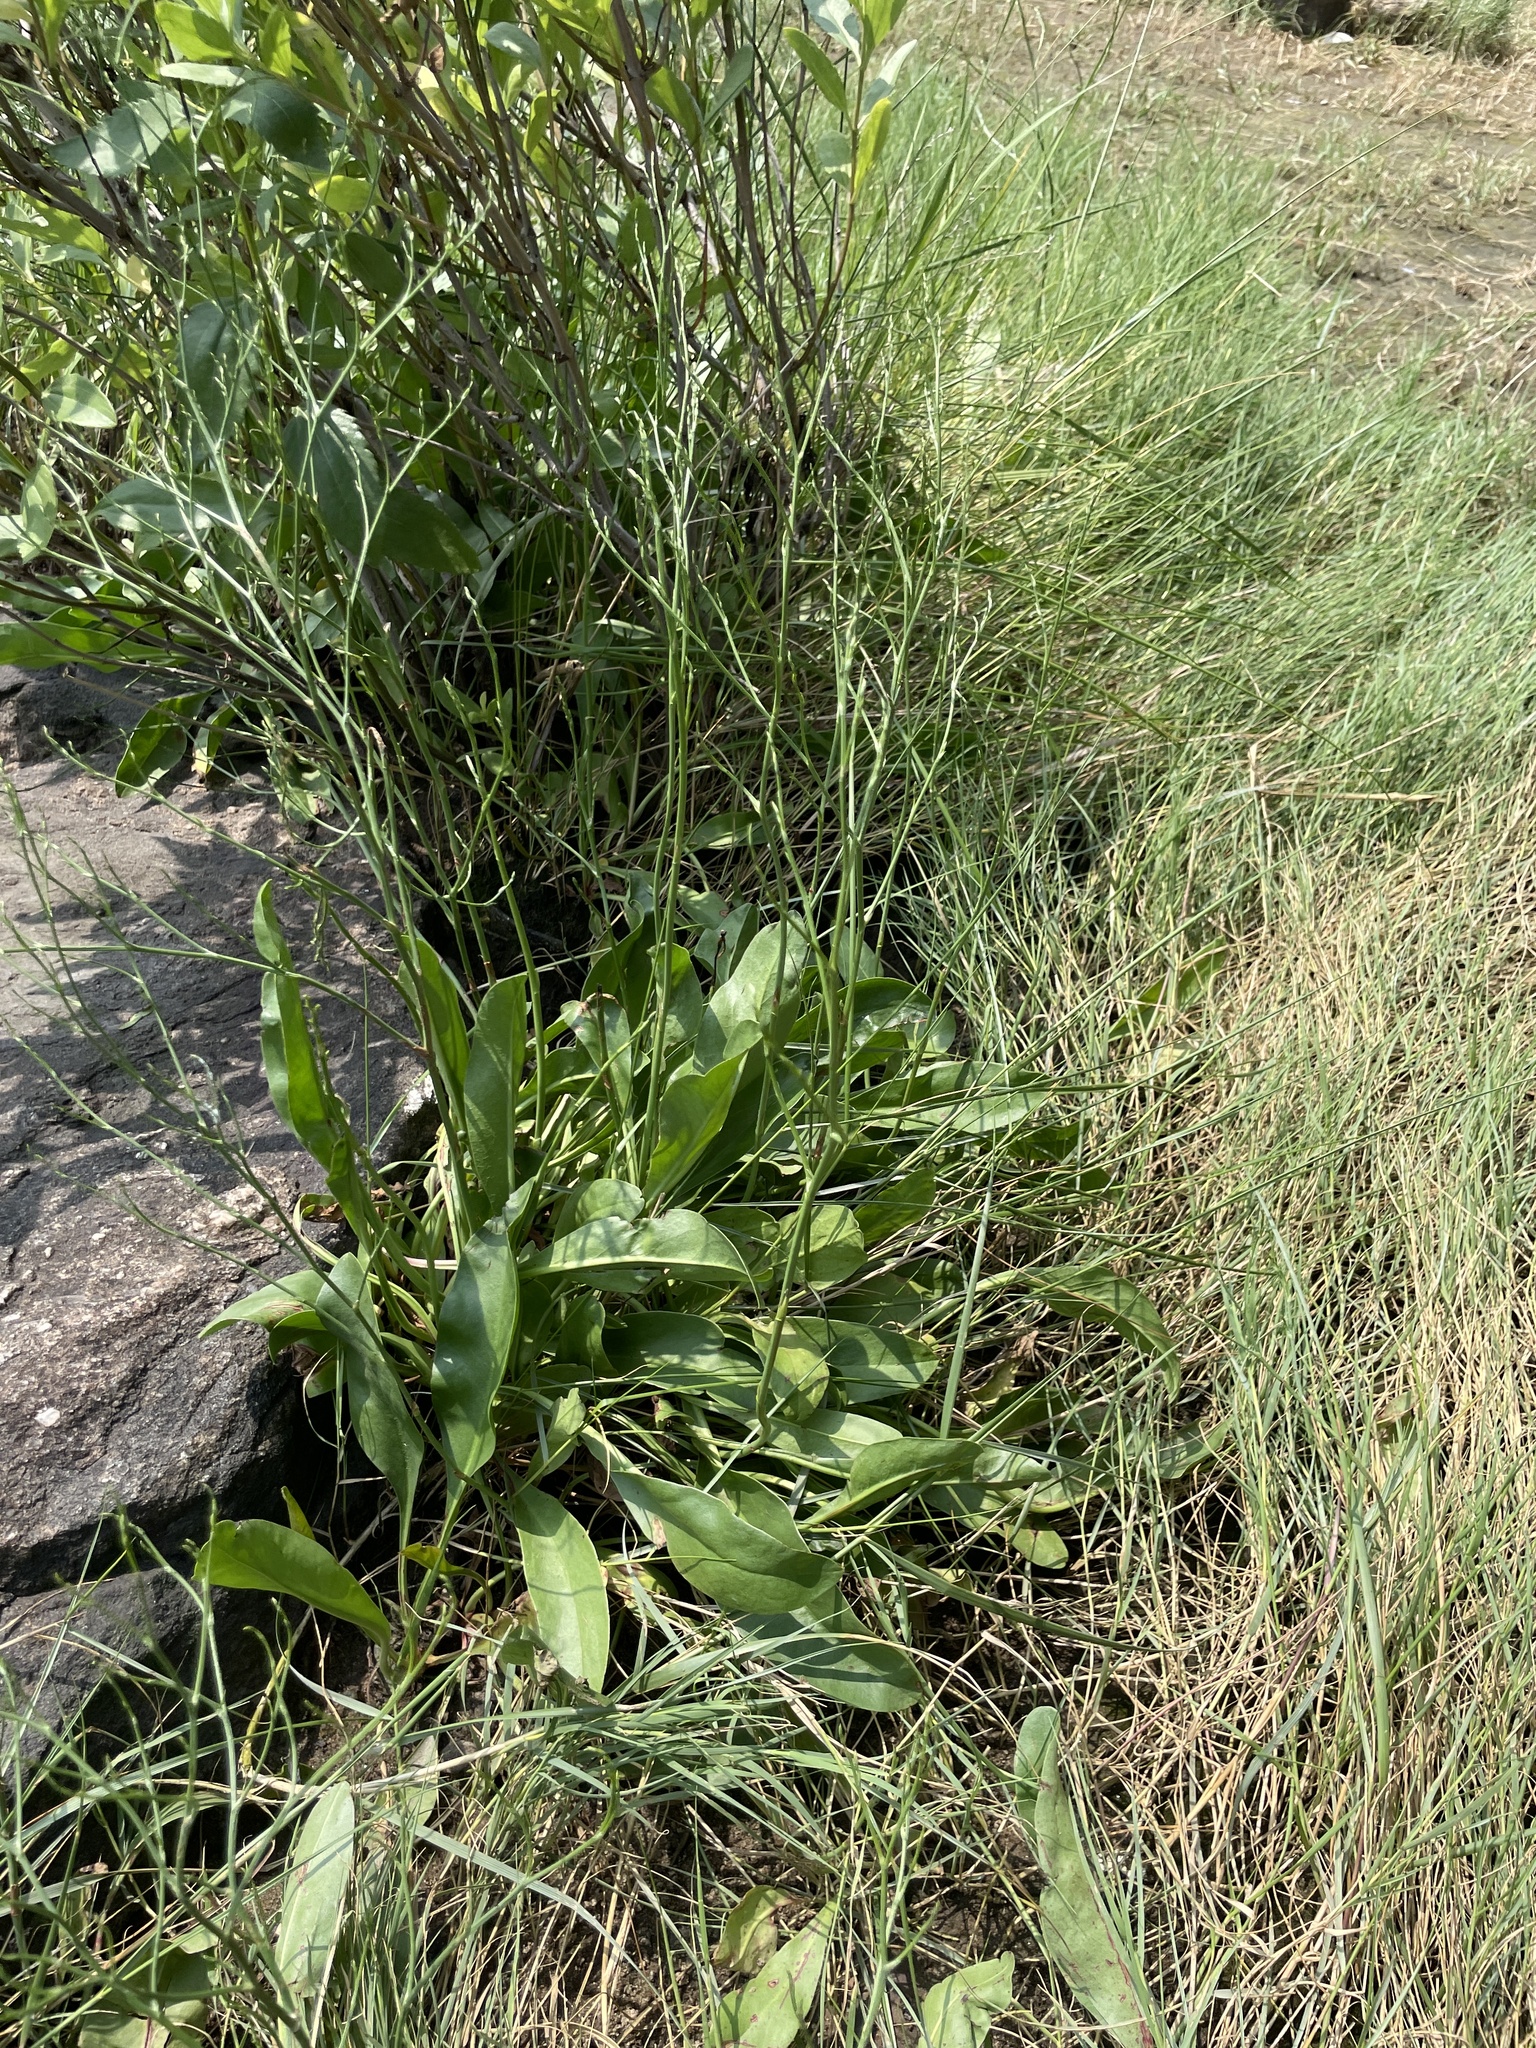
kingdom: Plantae
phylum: Tracheophyta
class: Magnoliopsida
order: Caryophyllales
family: Plumbaginaceae
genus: Limonium
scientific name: Limonium carolinianum
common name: Carolina sea lavender
